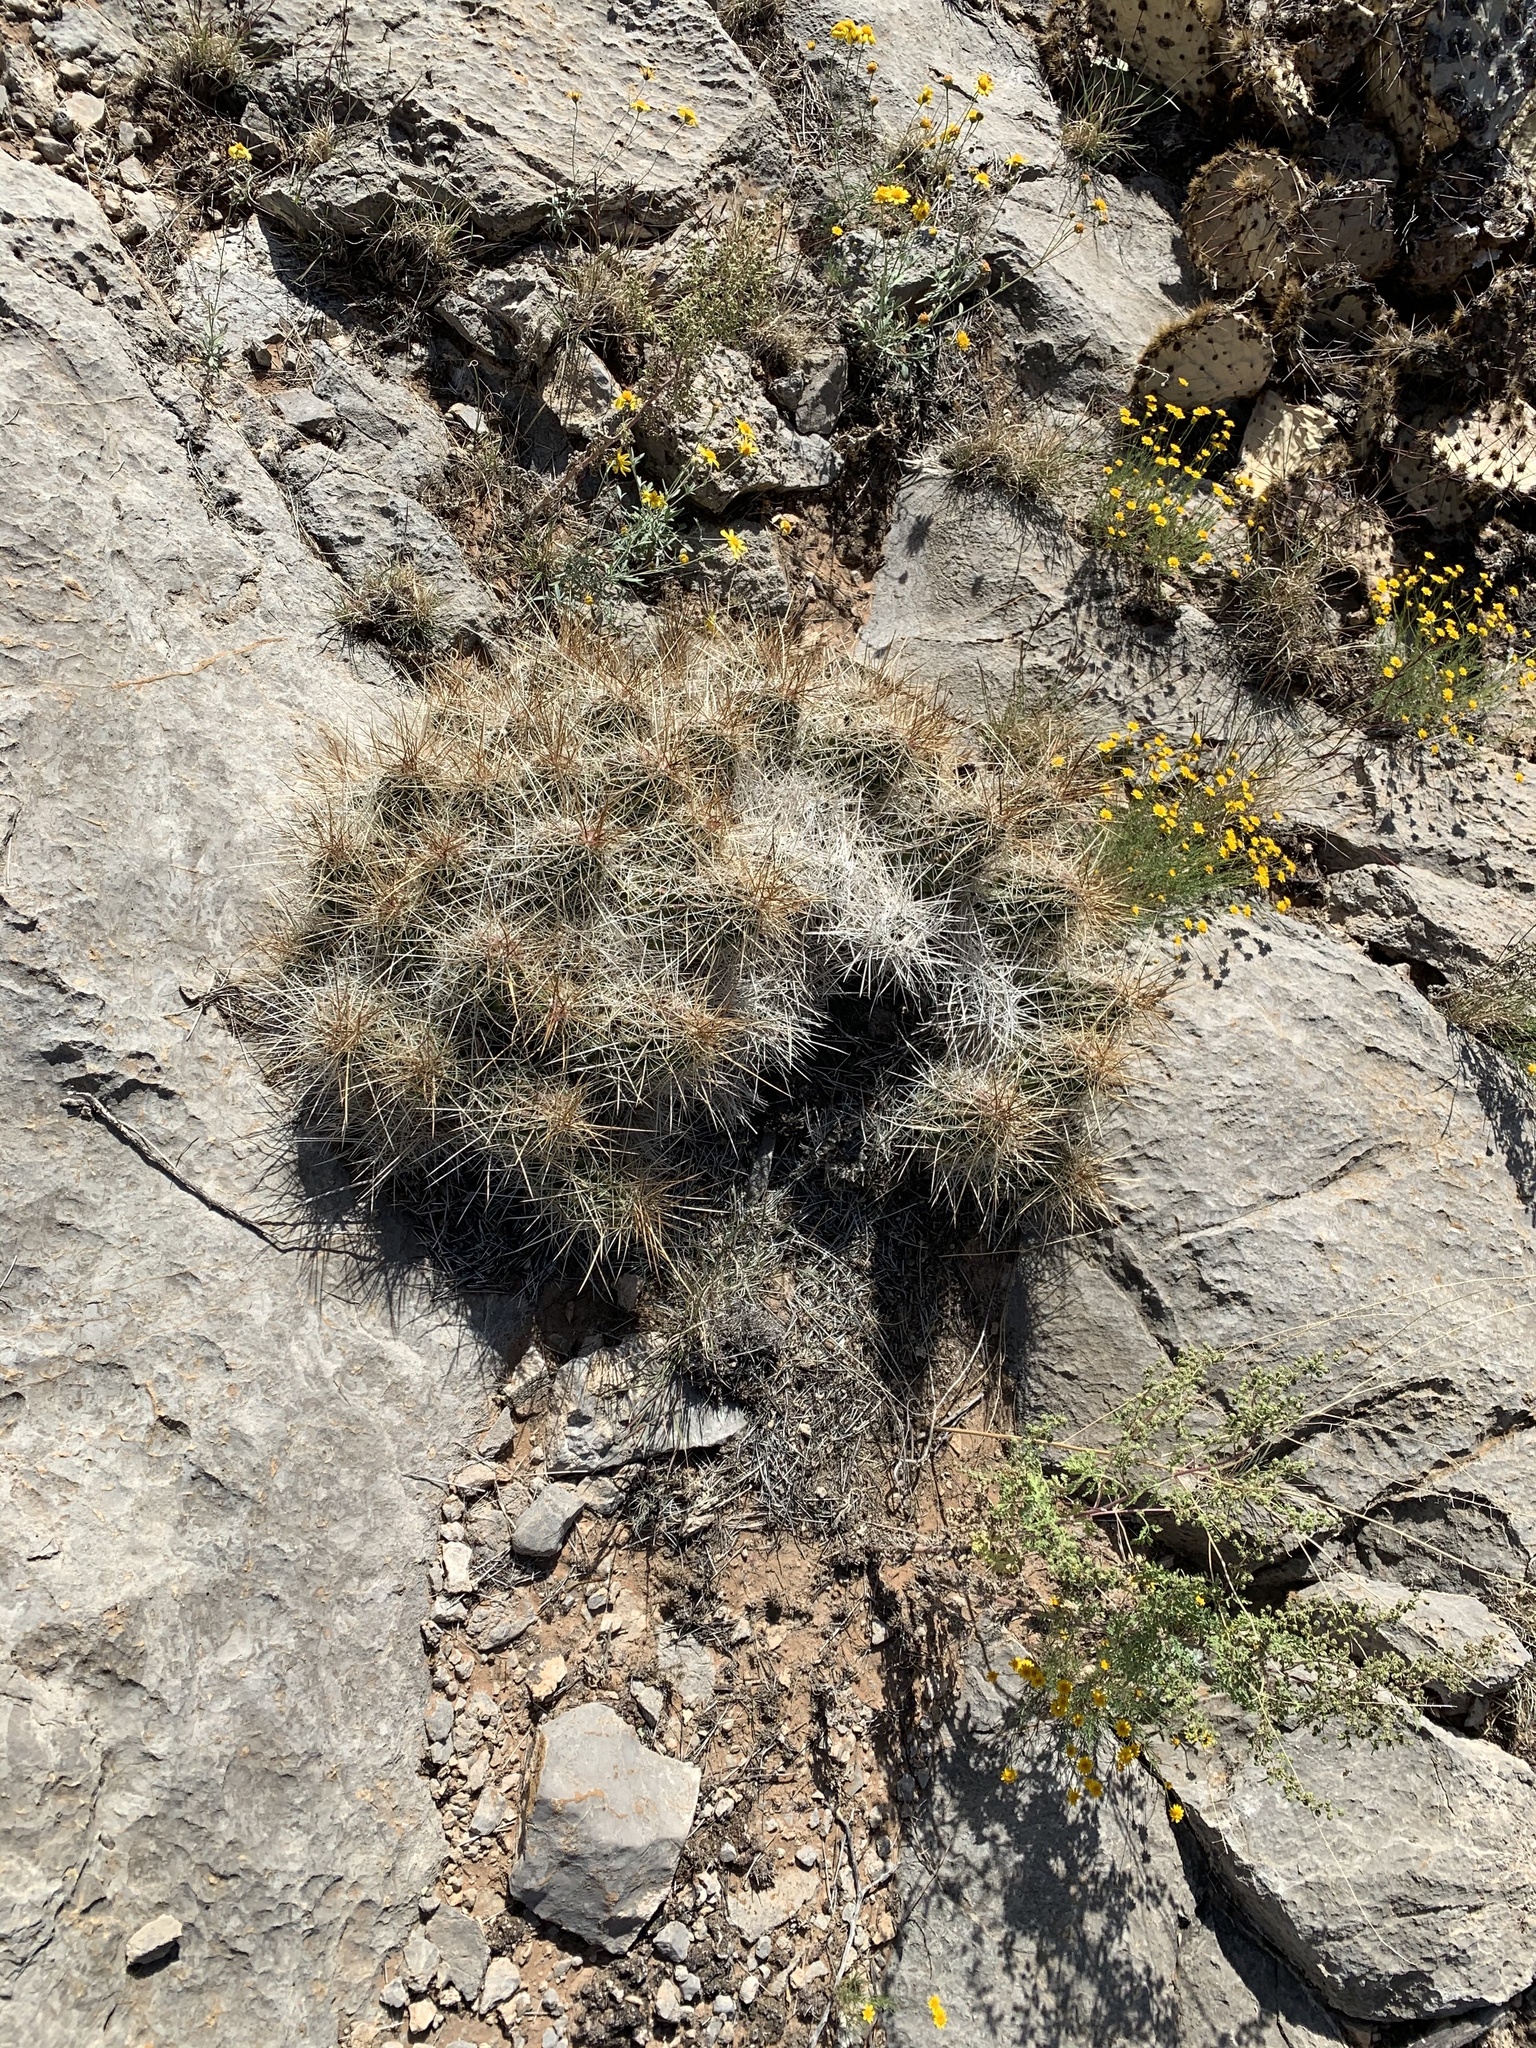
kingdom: Plantae
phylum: Tracheophyta
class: Magnoliopsida
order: Caryophyllales
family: Cactaceae
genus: Echinocereus
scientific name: Echinocereus stramineus
